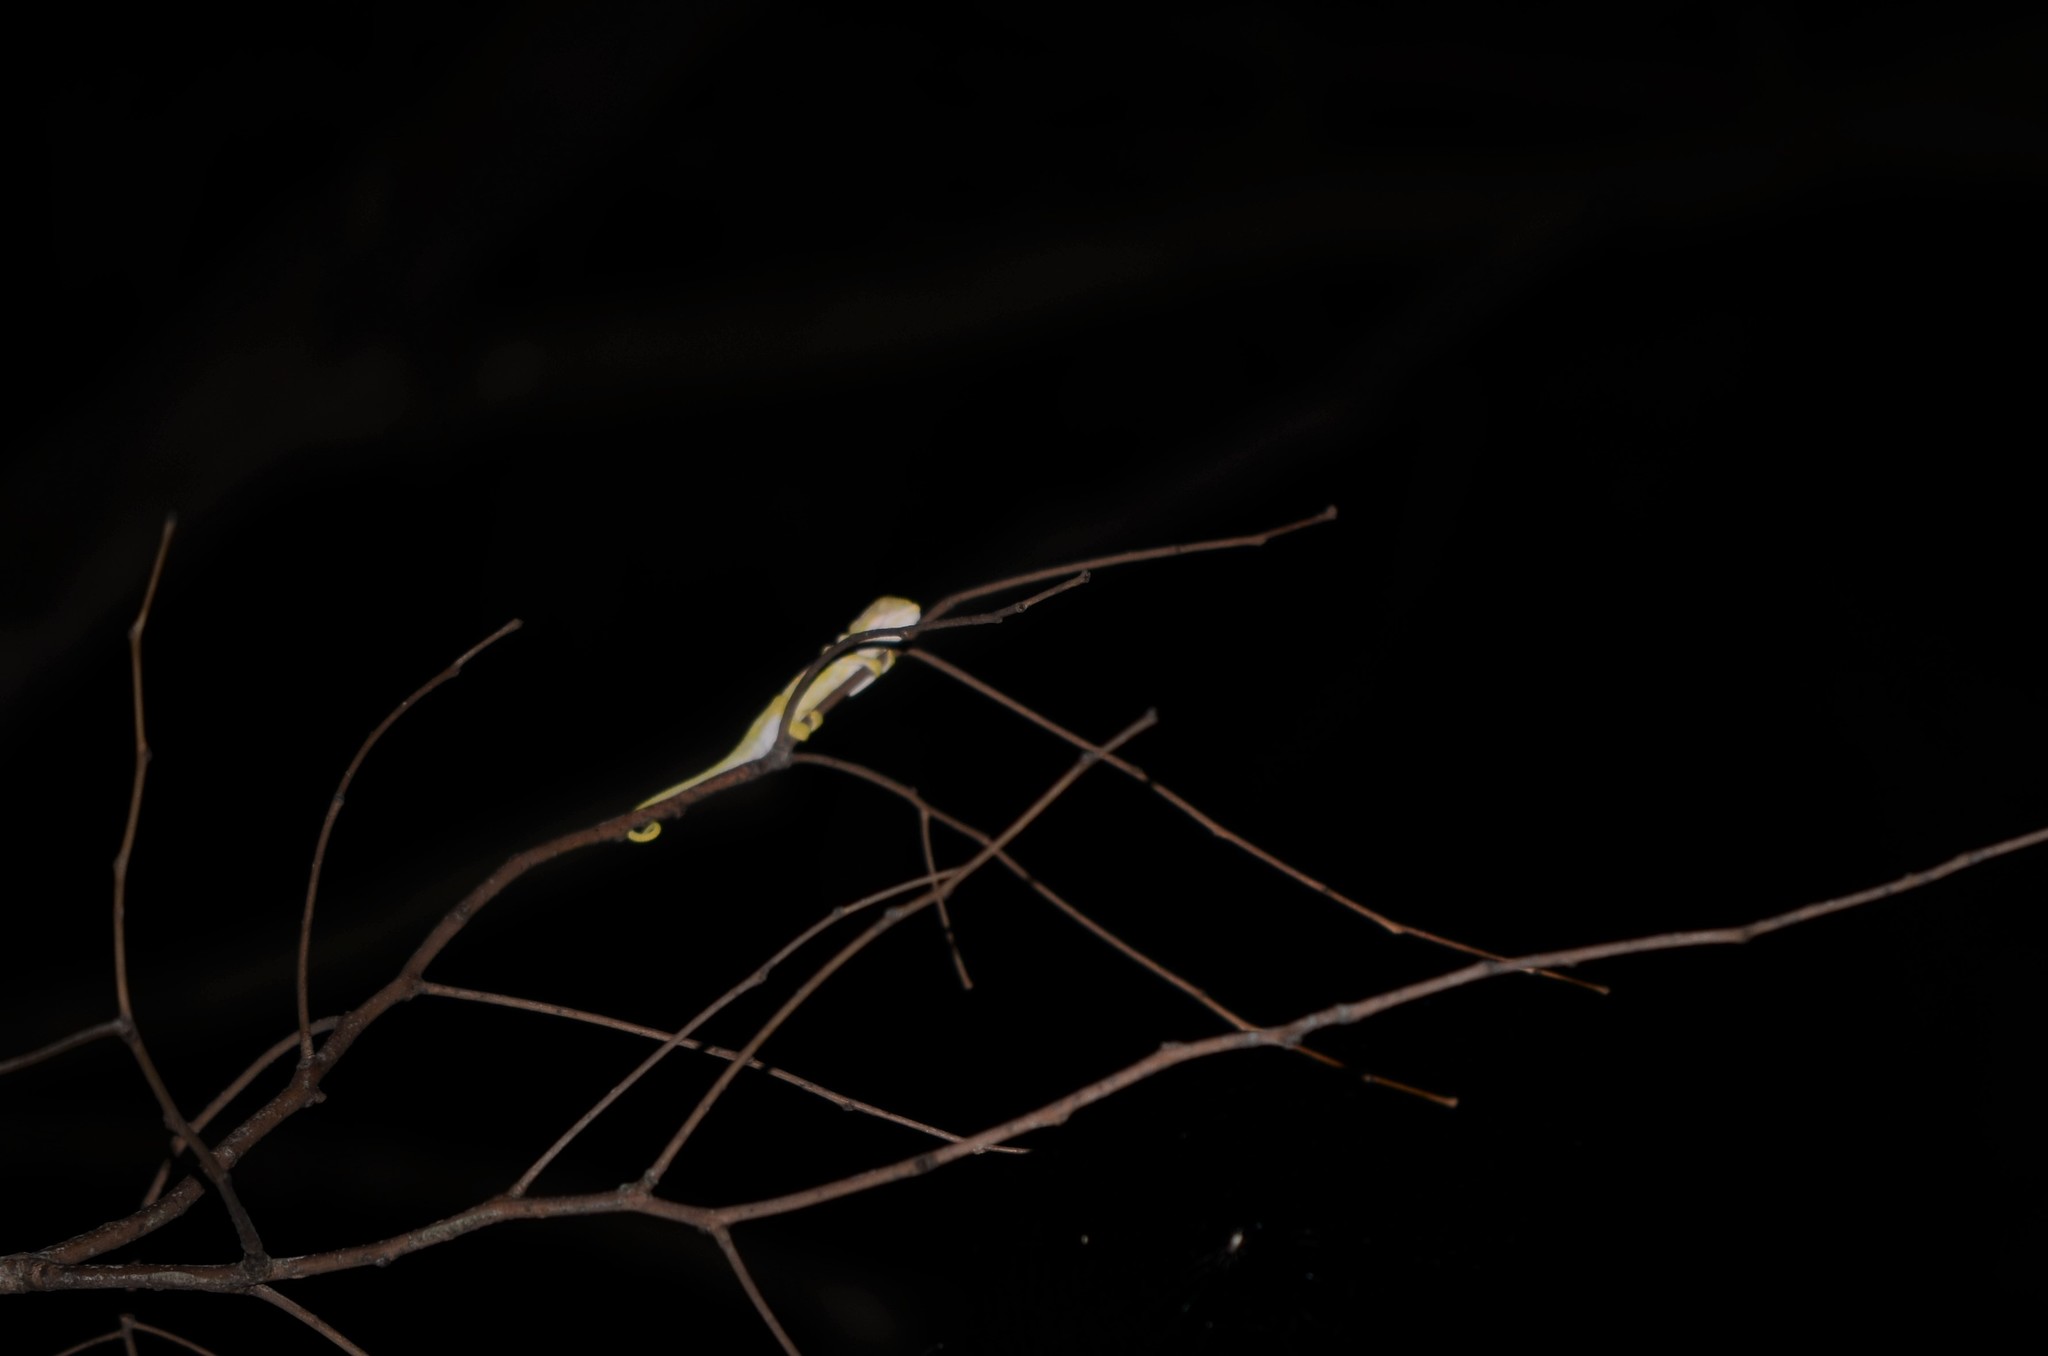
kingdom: Animalia
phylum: Chordata
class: Squamata
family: Chamaeleonidae
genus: Bradypodion
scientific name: Bradypodion pumilum
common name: Cape dwarf chameleon
